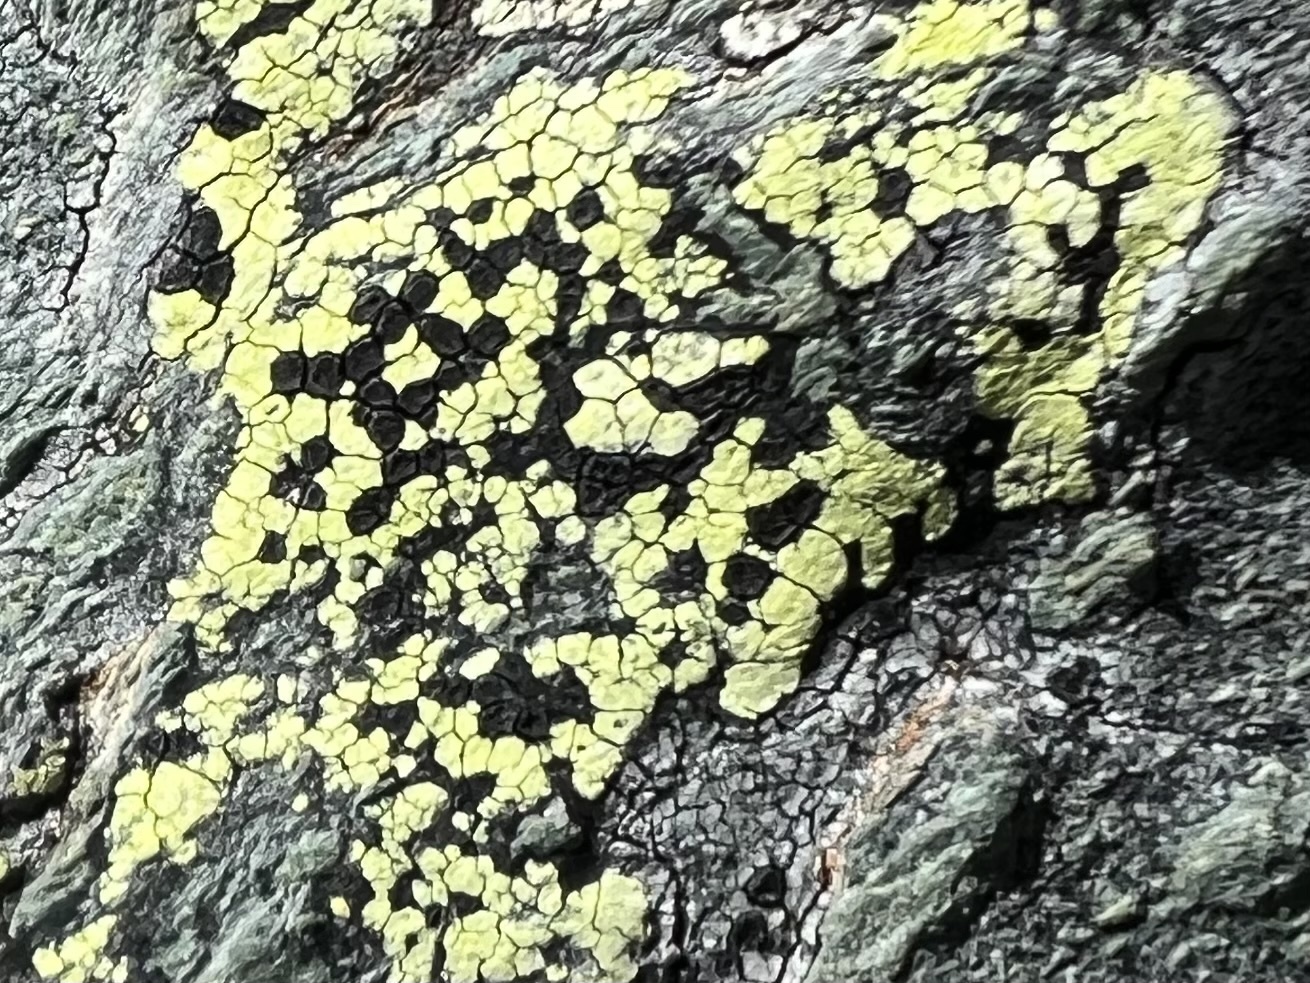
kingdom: Fungi
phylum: Ascomycota
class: Lecanoromycetes
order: Rhizocarpales
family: Rhizocarpaceae
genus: Rhizocarpon
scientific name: Rhizocarpon geographicum
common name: Yellow map lichen
